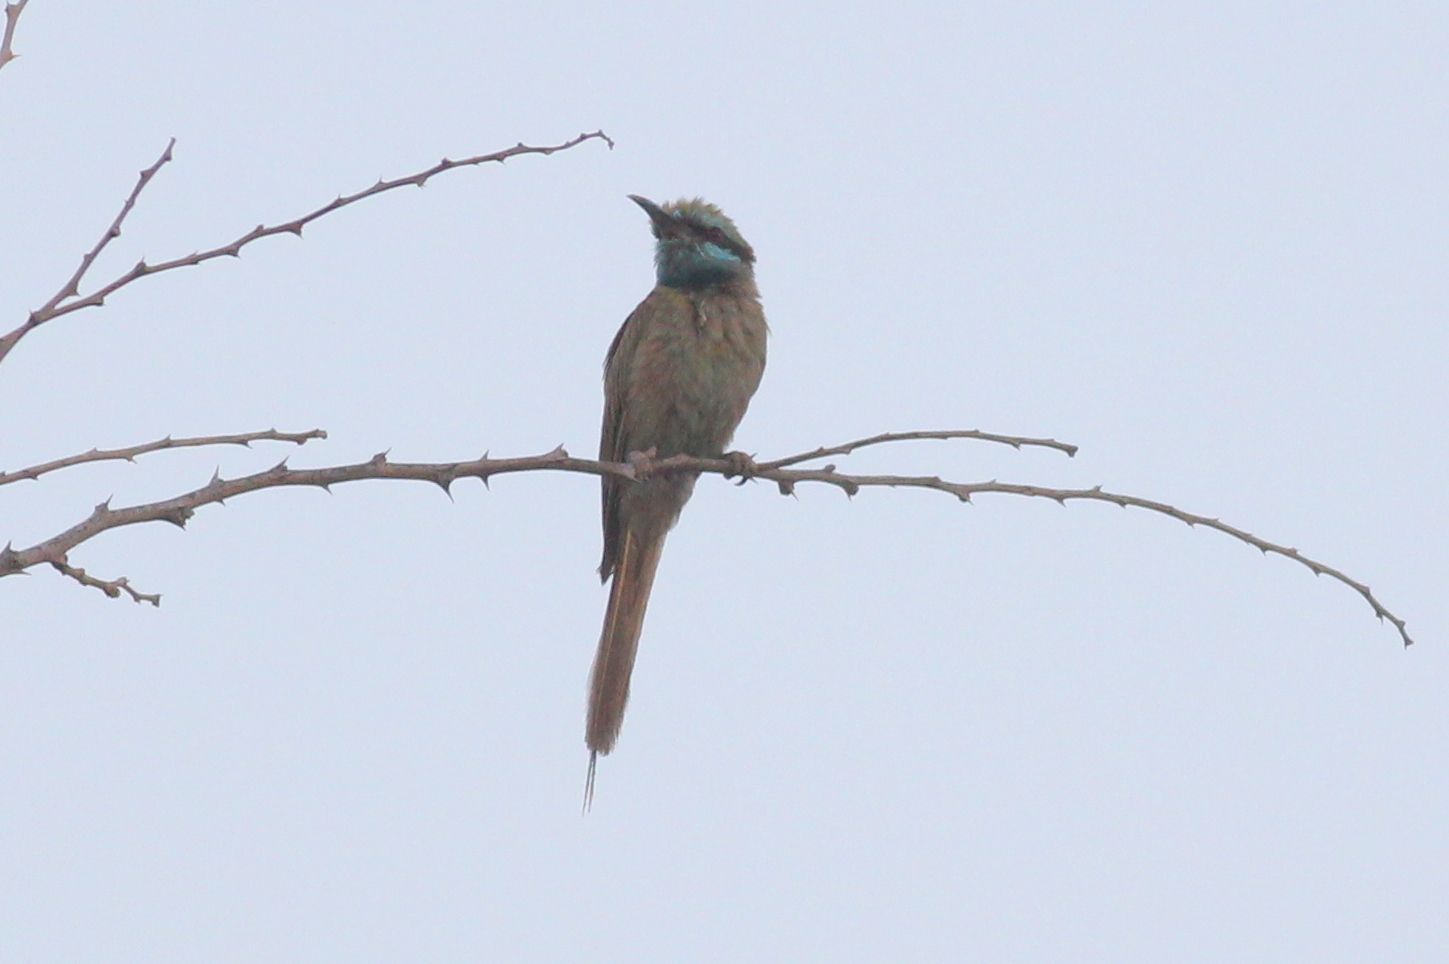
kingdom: Animalia
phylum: Chordata
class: Aves
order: Coraciiformes
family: Meropidae
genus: Merops
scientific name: Merops cyanophrys
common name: Arabian green bee-eater
